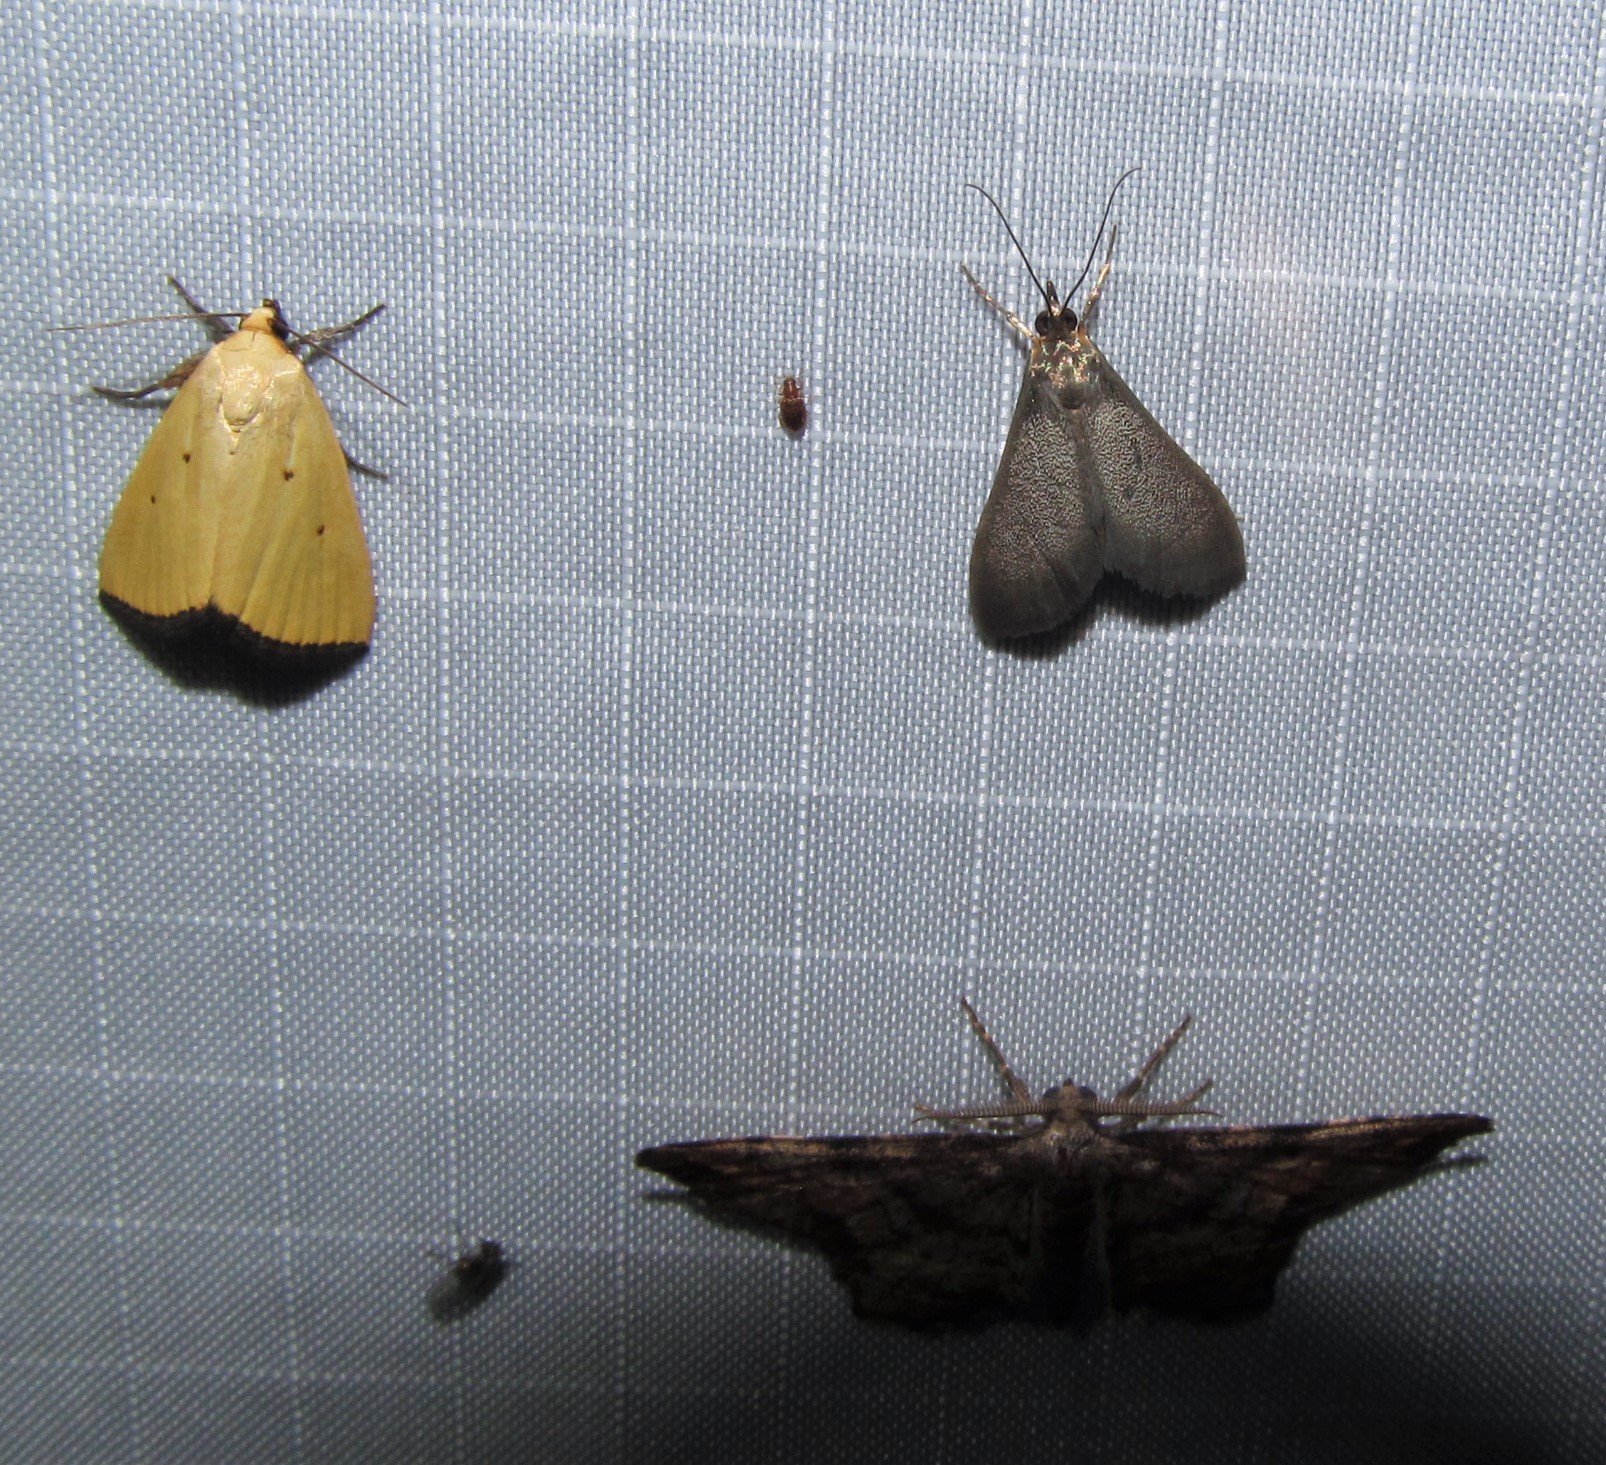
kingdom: Animalia
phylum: Arthropoda
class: Insecta
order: Lepidoptera
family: Noctuidae
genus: Marimatha
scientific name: Marimatha nigrofimbria
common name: Black-bordered lemon moth
